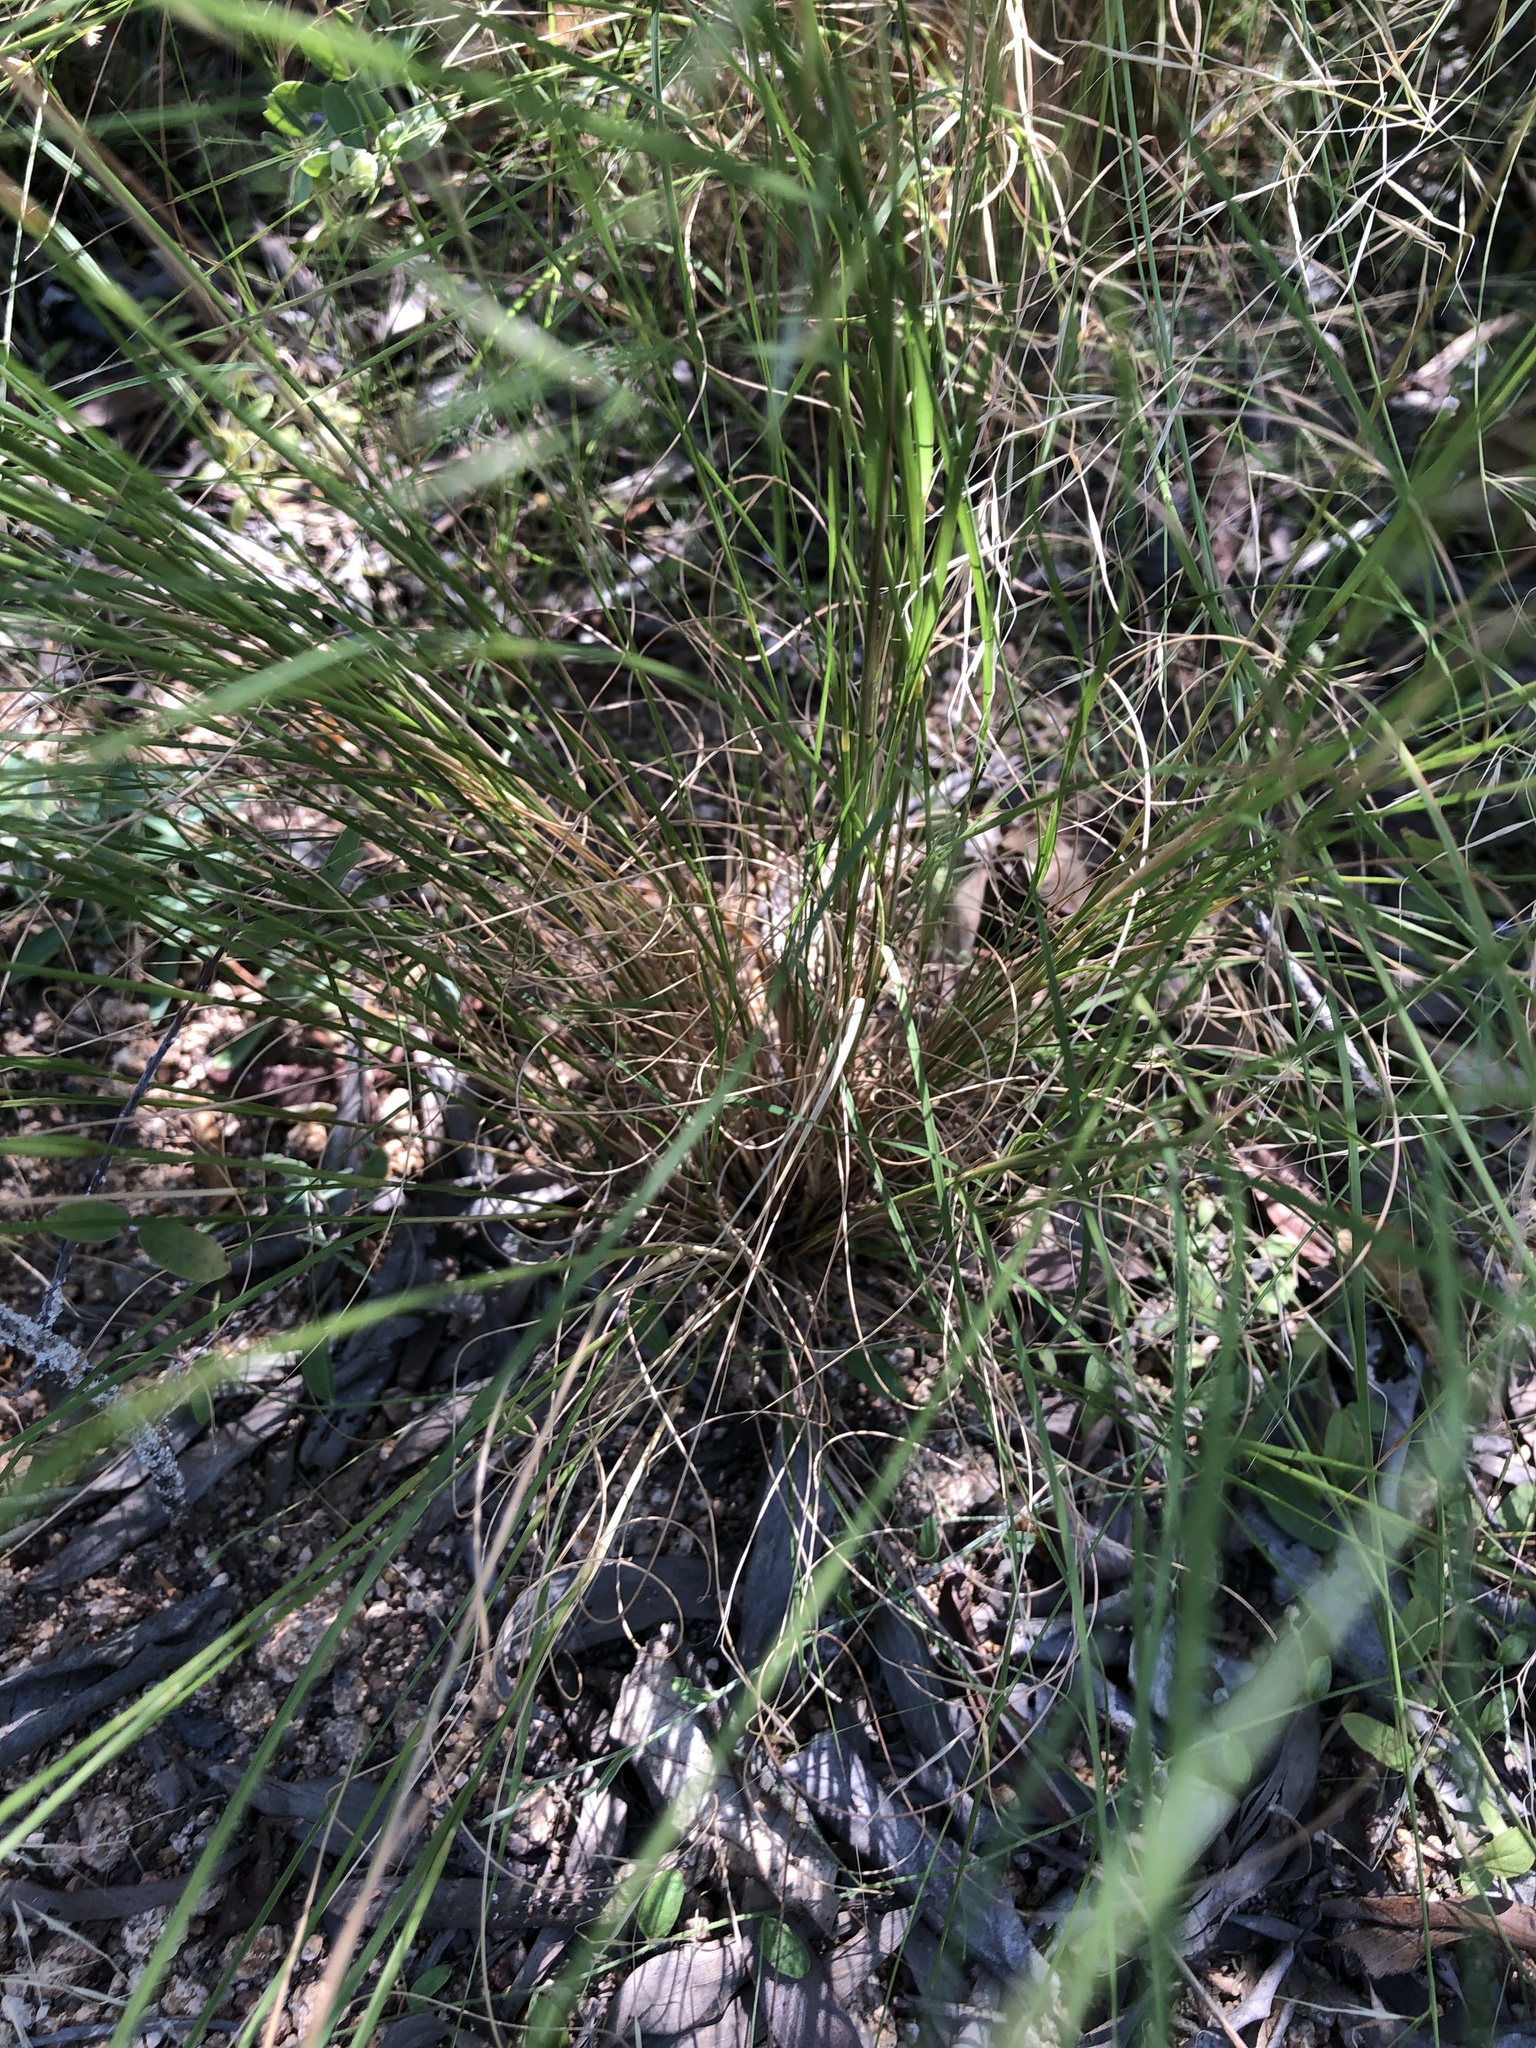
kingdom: Plantae
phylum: Tracheophyta
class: Liliopsida
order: Poales
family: Poaceae
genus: Aristida
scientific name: Aristida spuria
